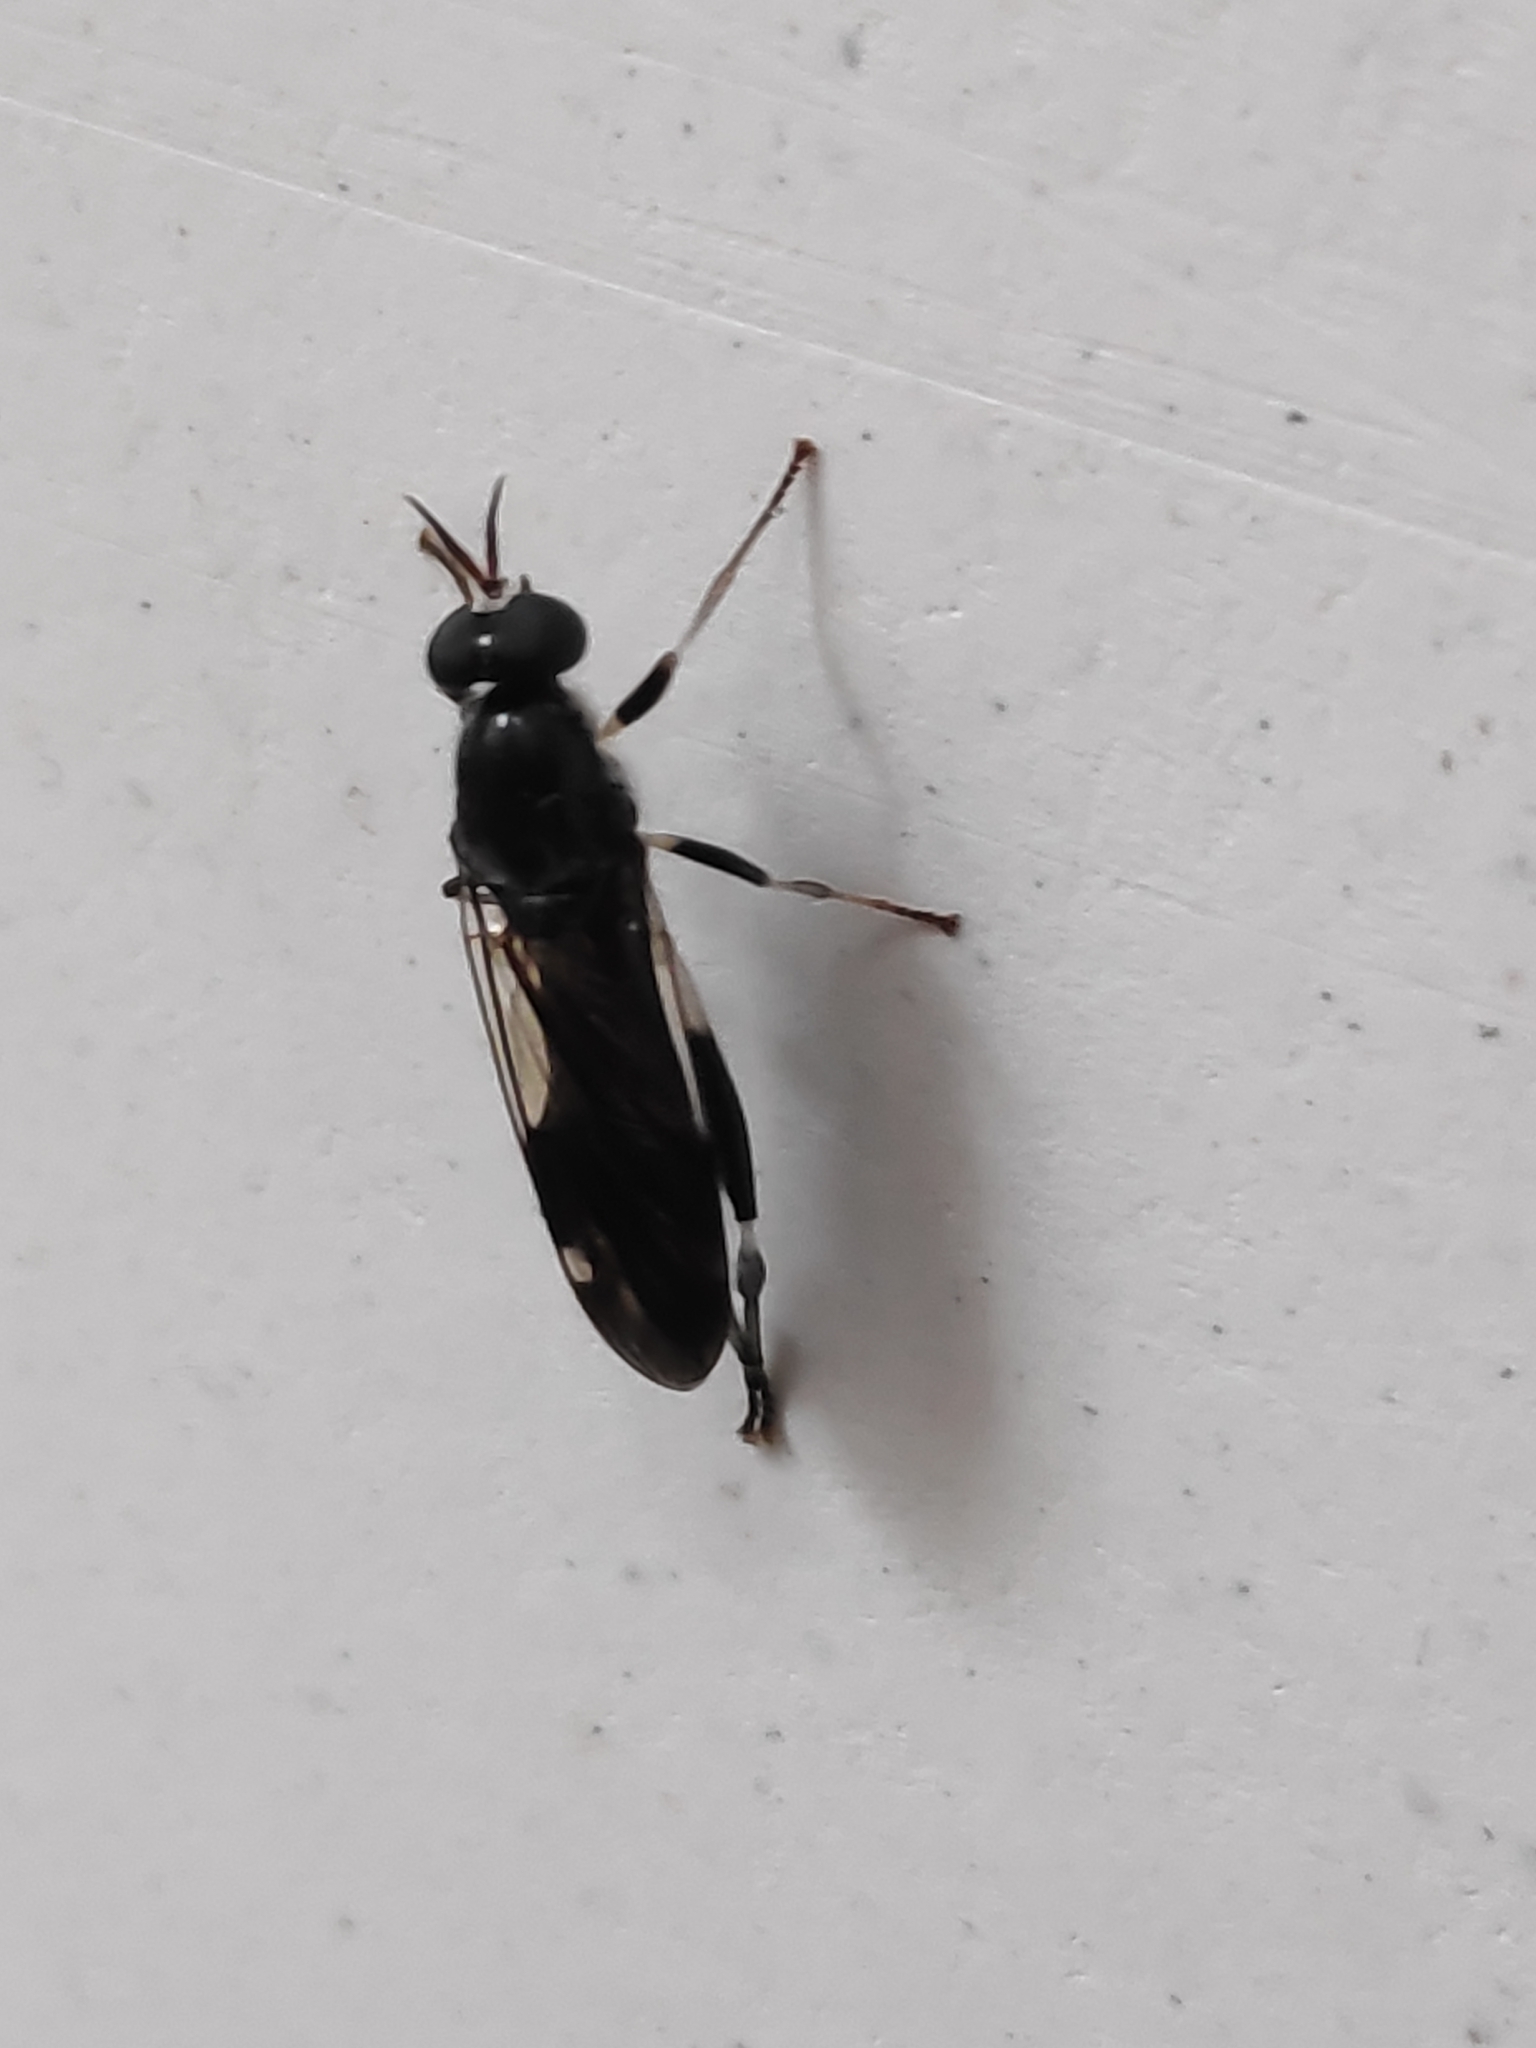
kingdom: Animalia
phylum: Arthropoda
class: Insecta
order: Diptera
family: Stratiomyidae
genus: Exaireta
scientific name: Exaireta spinigera
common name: Blue soldier fly
